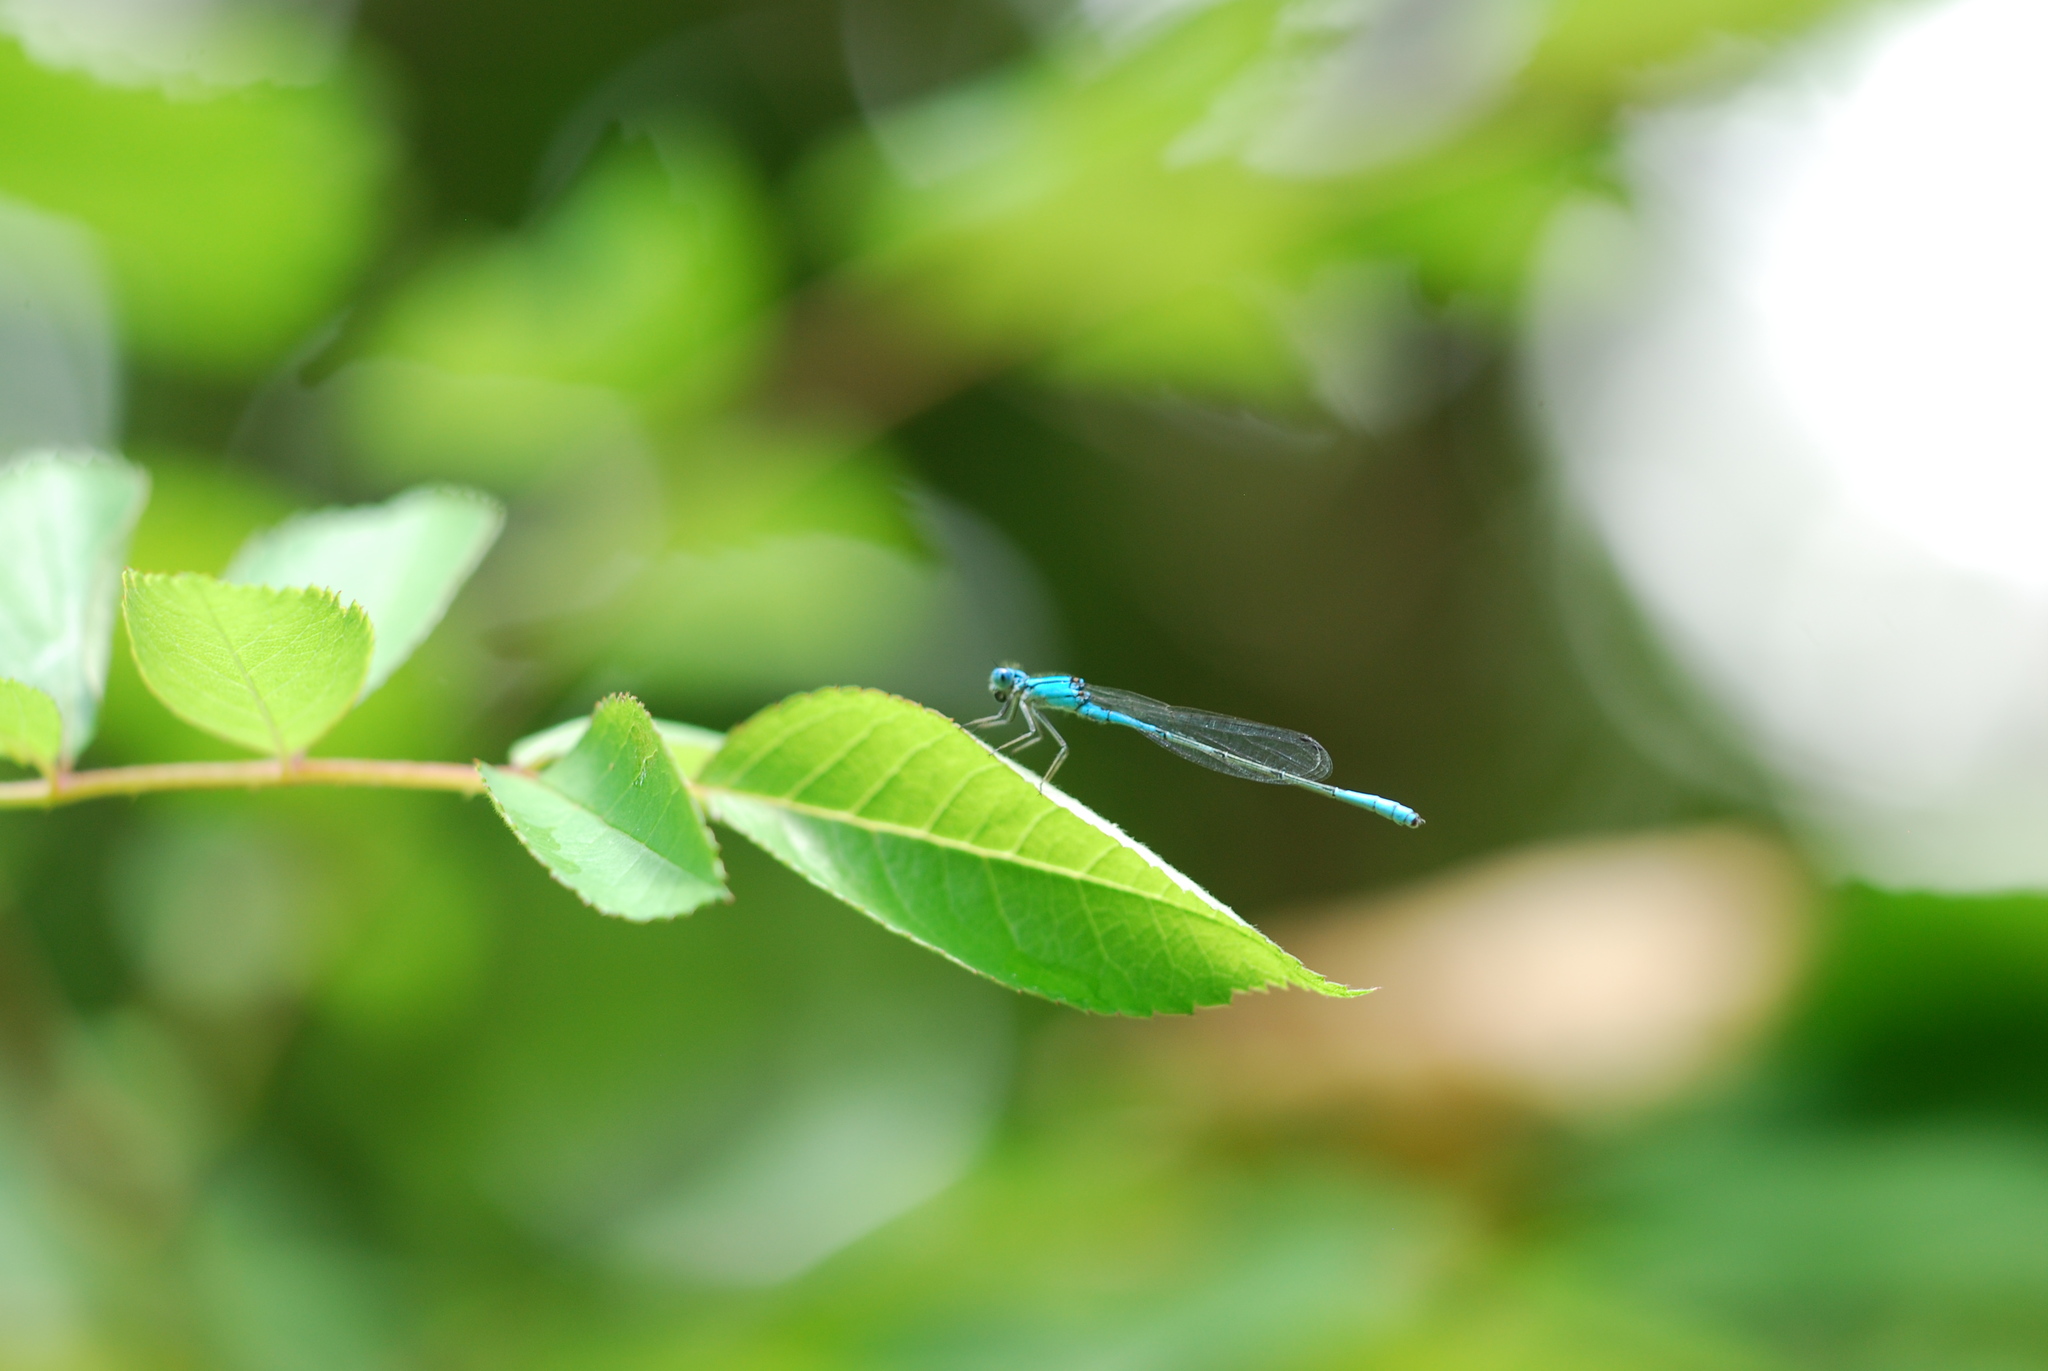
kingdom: Animalia
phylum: Arthropoda
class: Insecta
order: Odonata
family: Coenagrionidae
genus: Enallagma
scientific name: Enallagma aspersum
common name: Azure bluet
